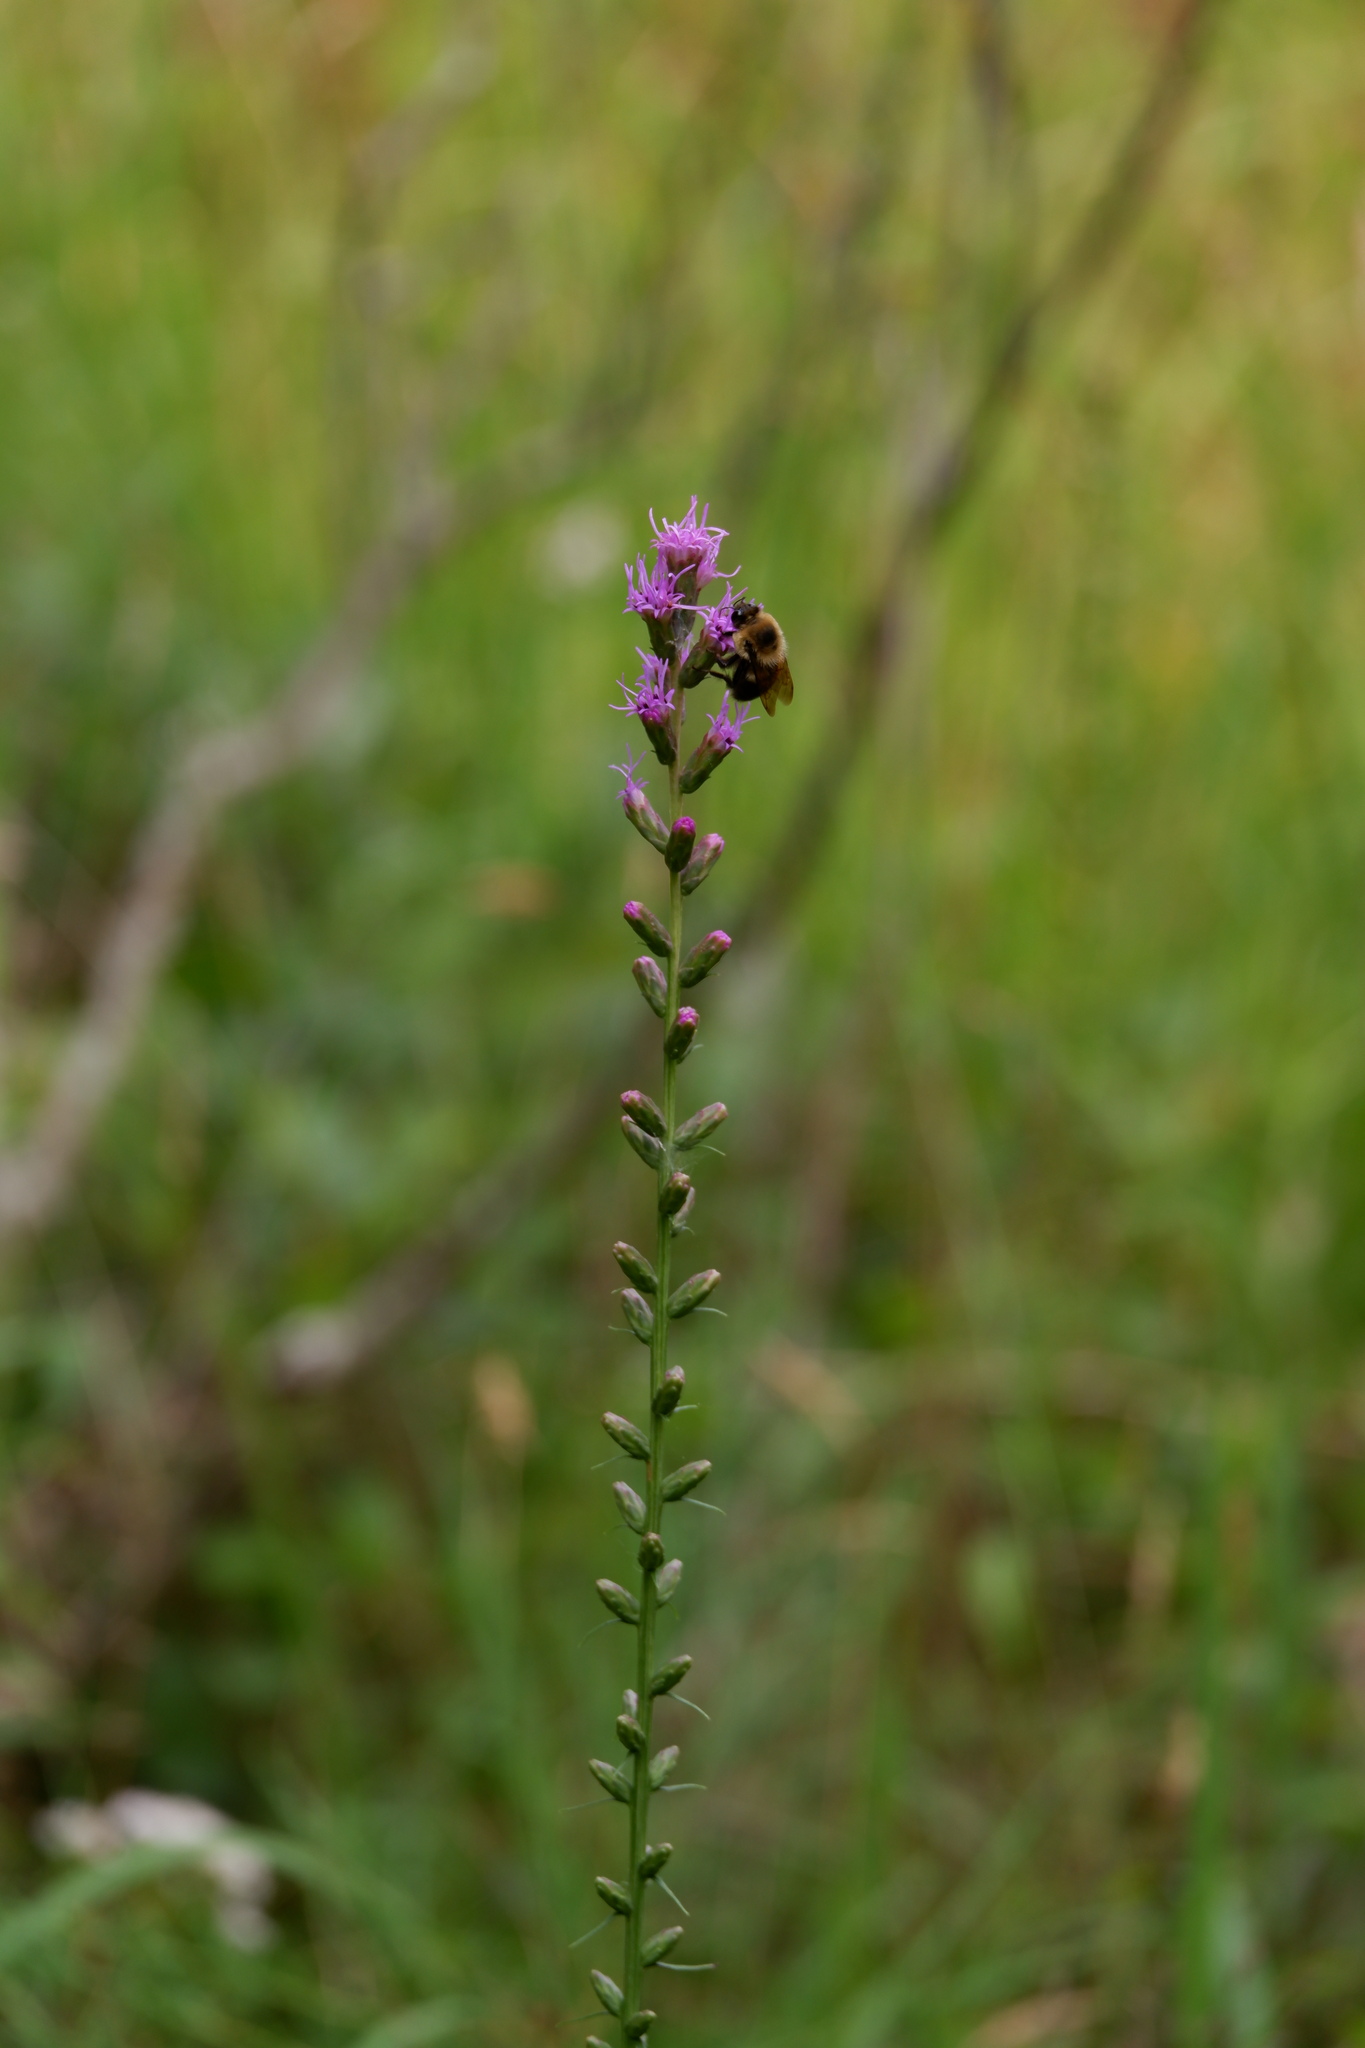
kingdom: Animalia
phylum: Arthropoda
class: Insecta
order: Hymenoptera
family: Apidae
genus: Bombus
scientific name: Bombus griseocollis
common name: Brown-belted bumble bee
